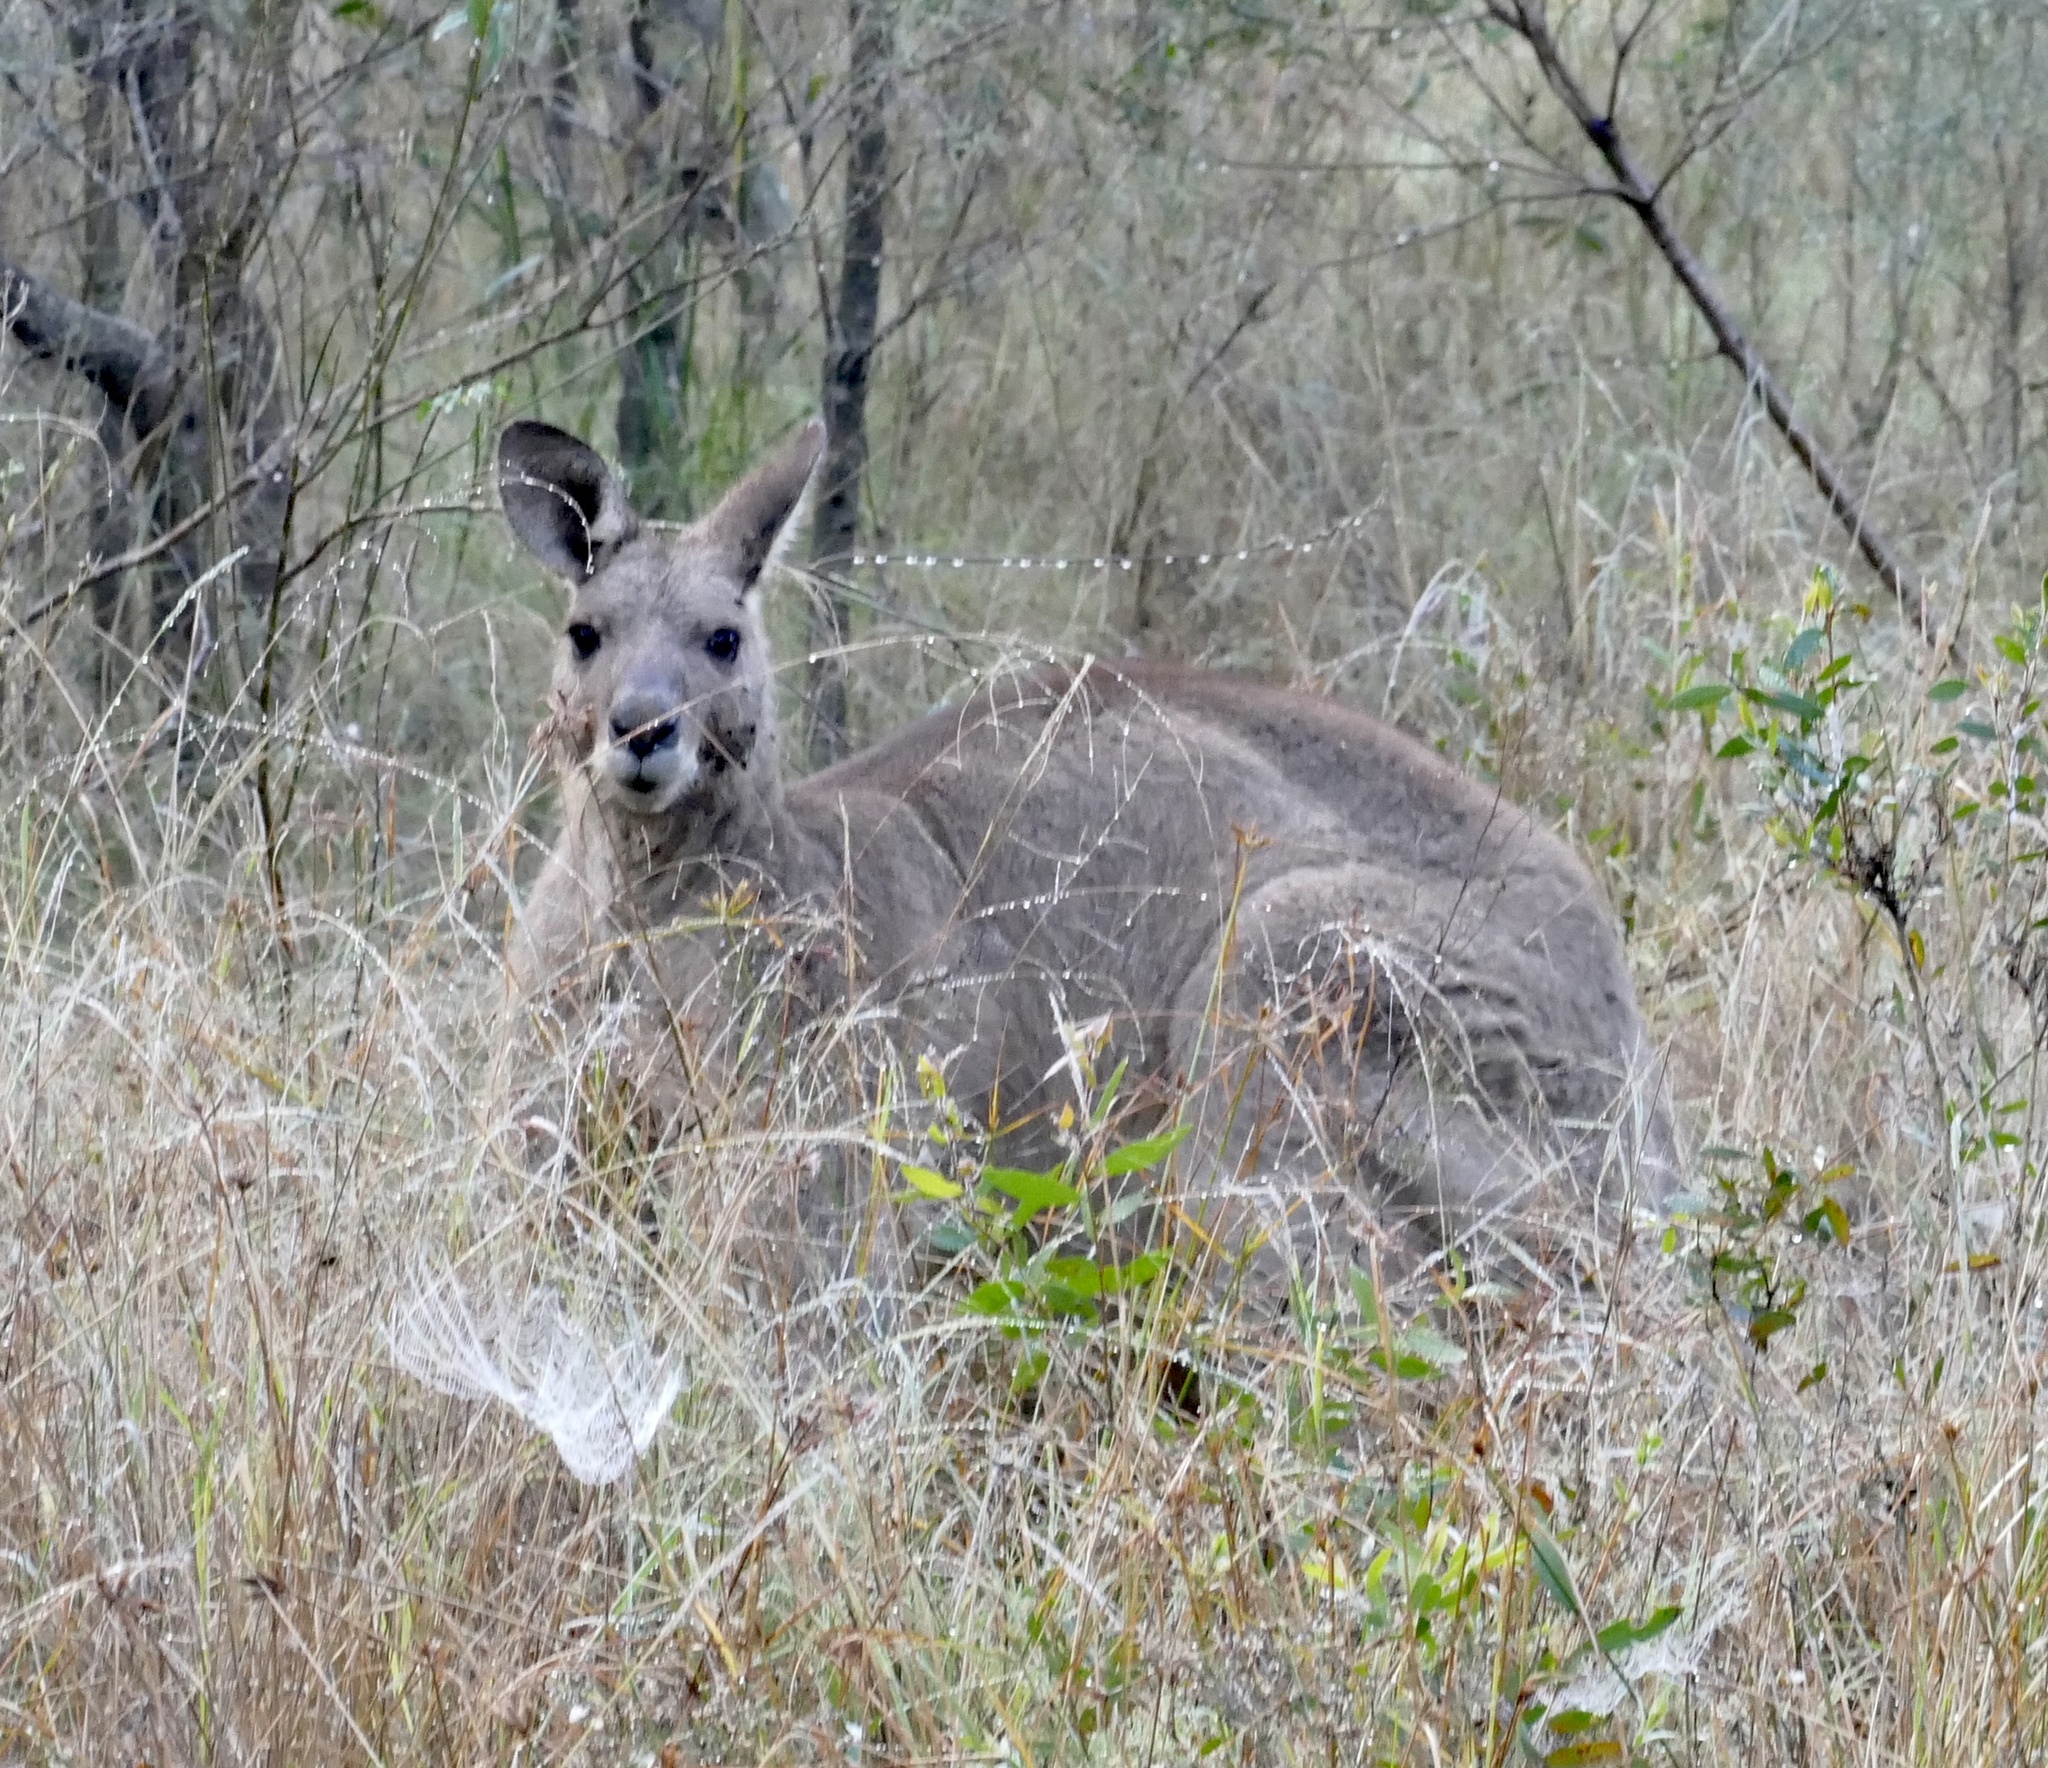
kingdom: Animalia
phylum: Chordata
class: Mammalia
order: Diprotodontia
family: Macropodidae
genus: Macropus
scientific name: Macropus giganteus
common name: Eastern grey kangaroo
